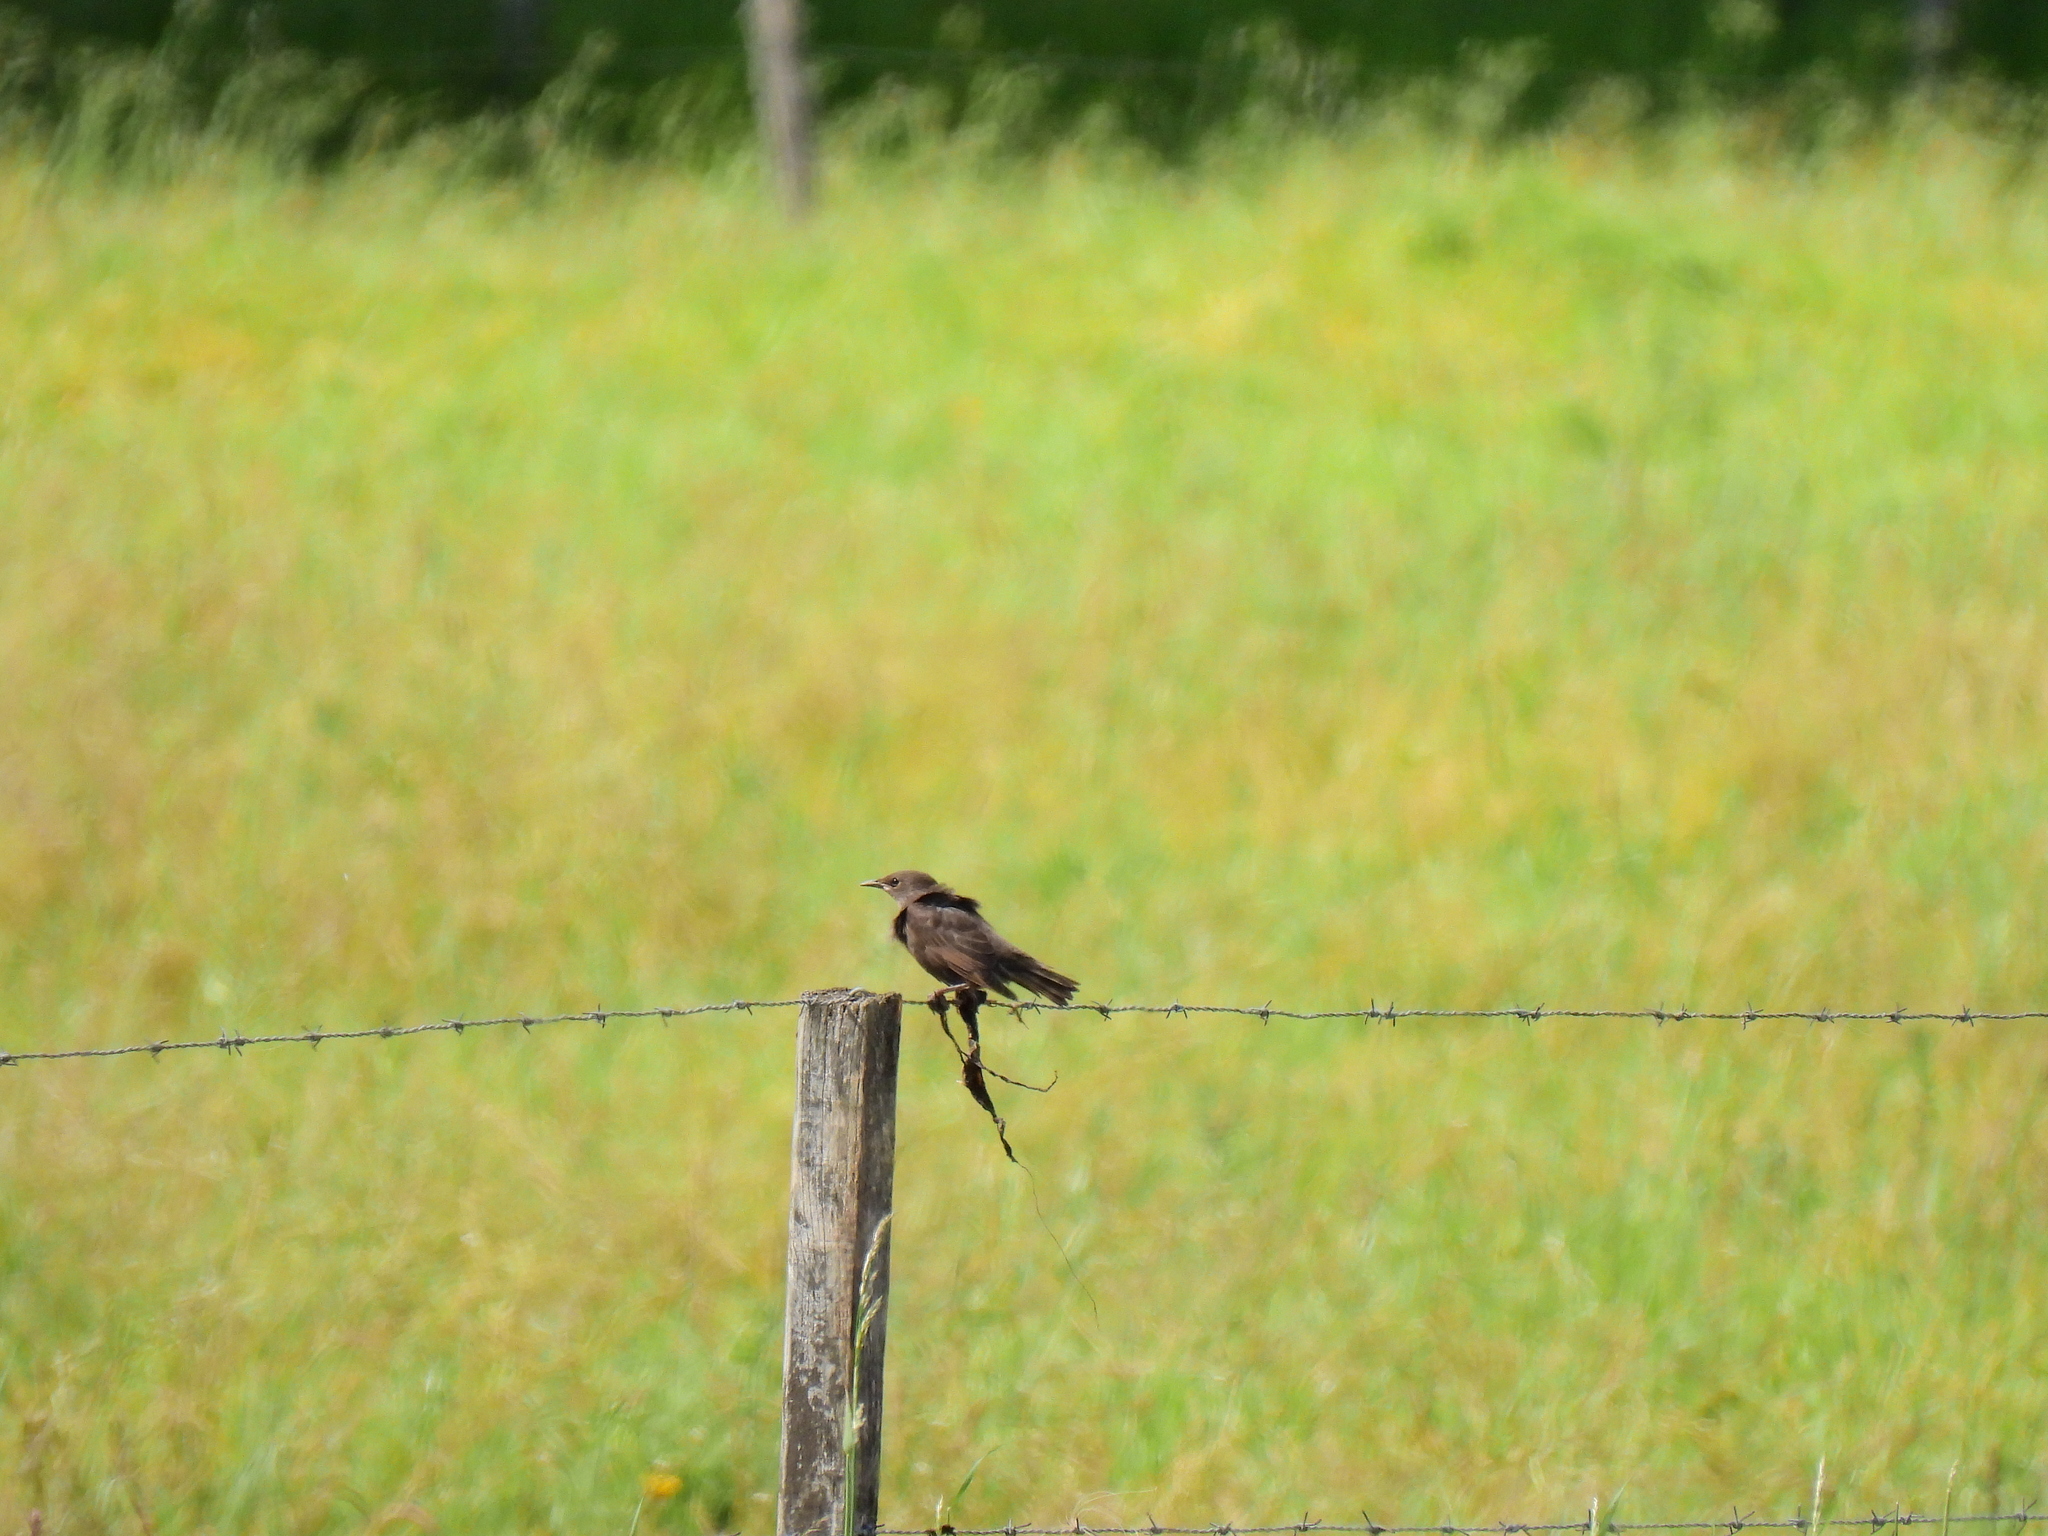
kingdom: Animalia
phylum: Chordata
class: Aves
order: Passeriformes
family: Sturnidae
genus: Sturnus
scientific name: Sturnus vulgaris
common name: Common starling
